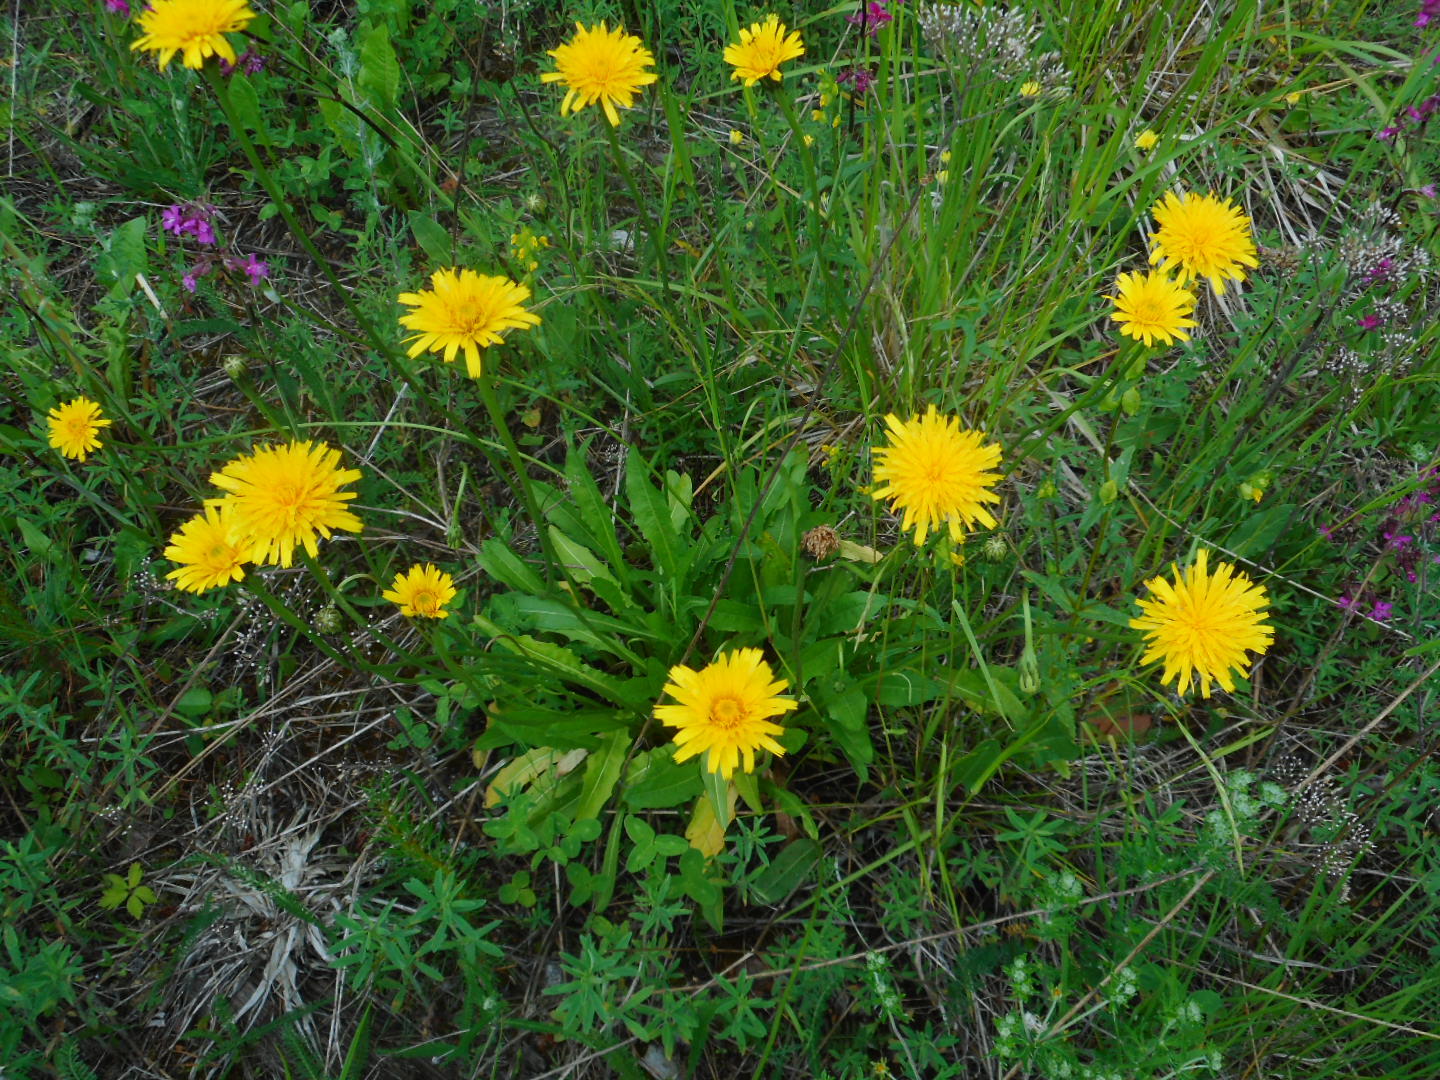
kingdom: Plantae
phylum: Tracheophyta
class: Magnoliopsida
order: Asterales
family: Asteraceae
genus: Leontodon
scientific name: Leontodon hispidus
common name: Rough hawkbit
